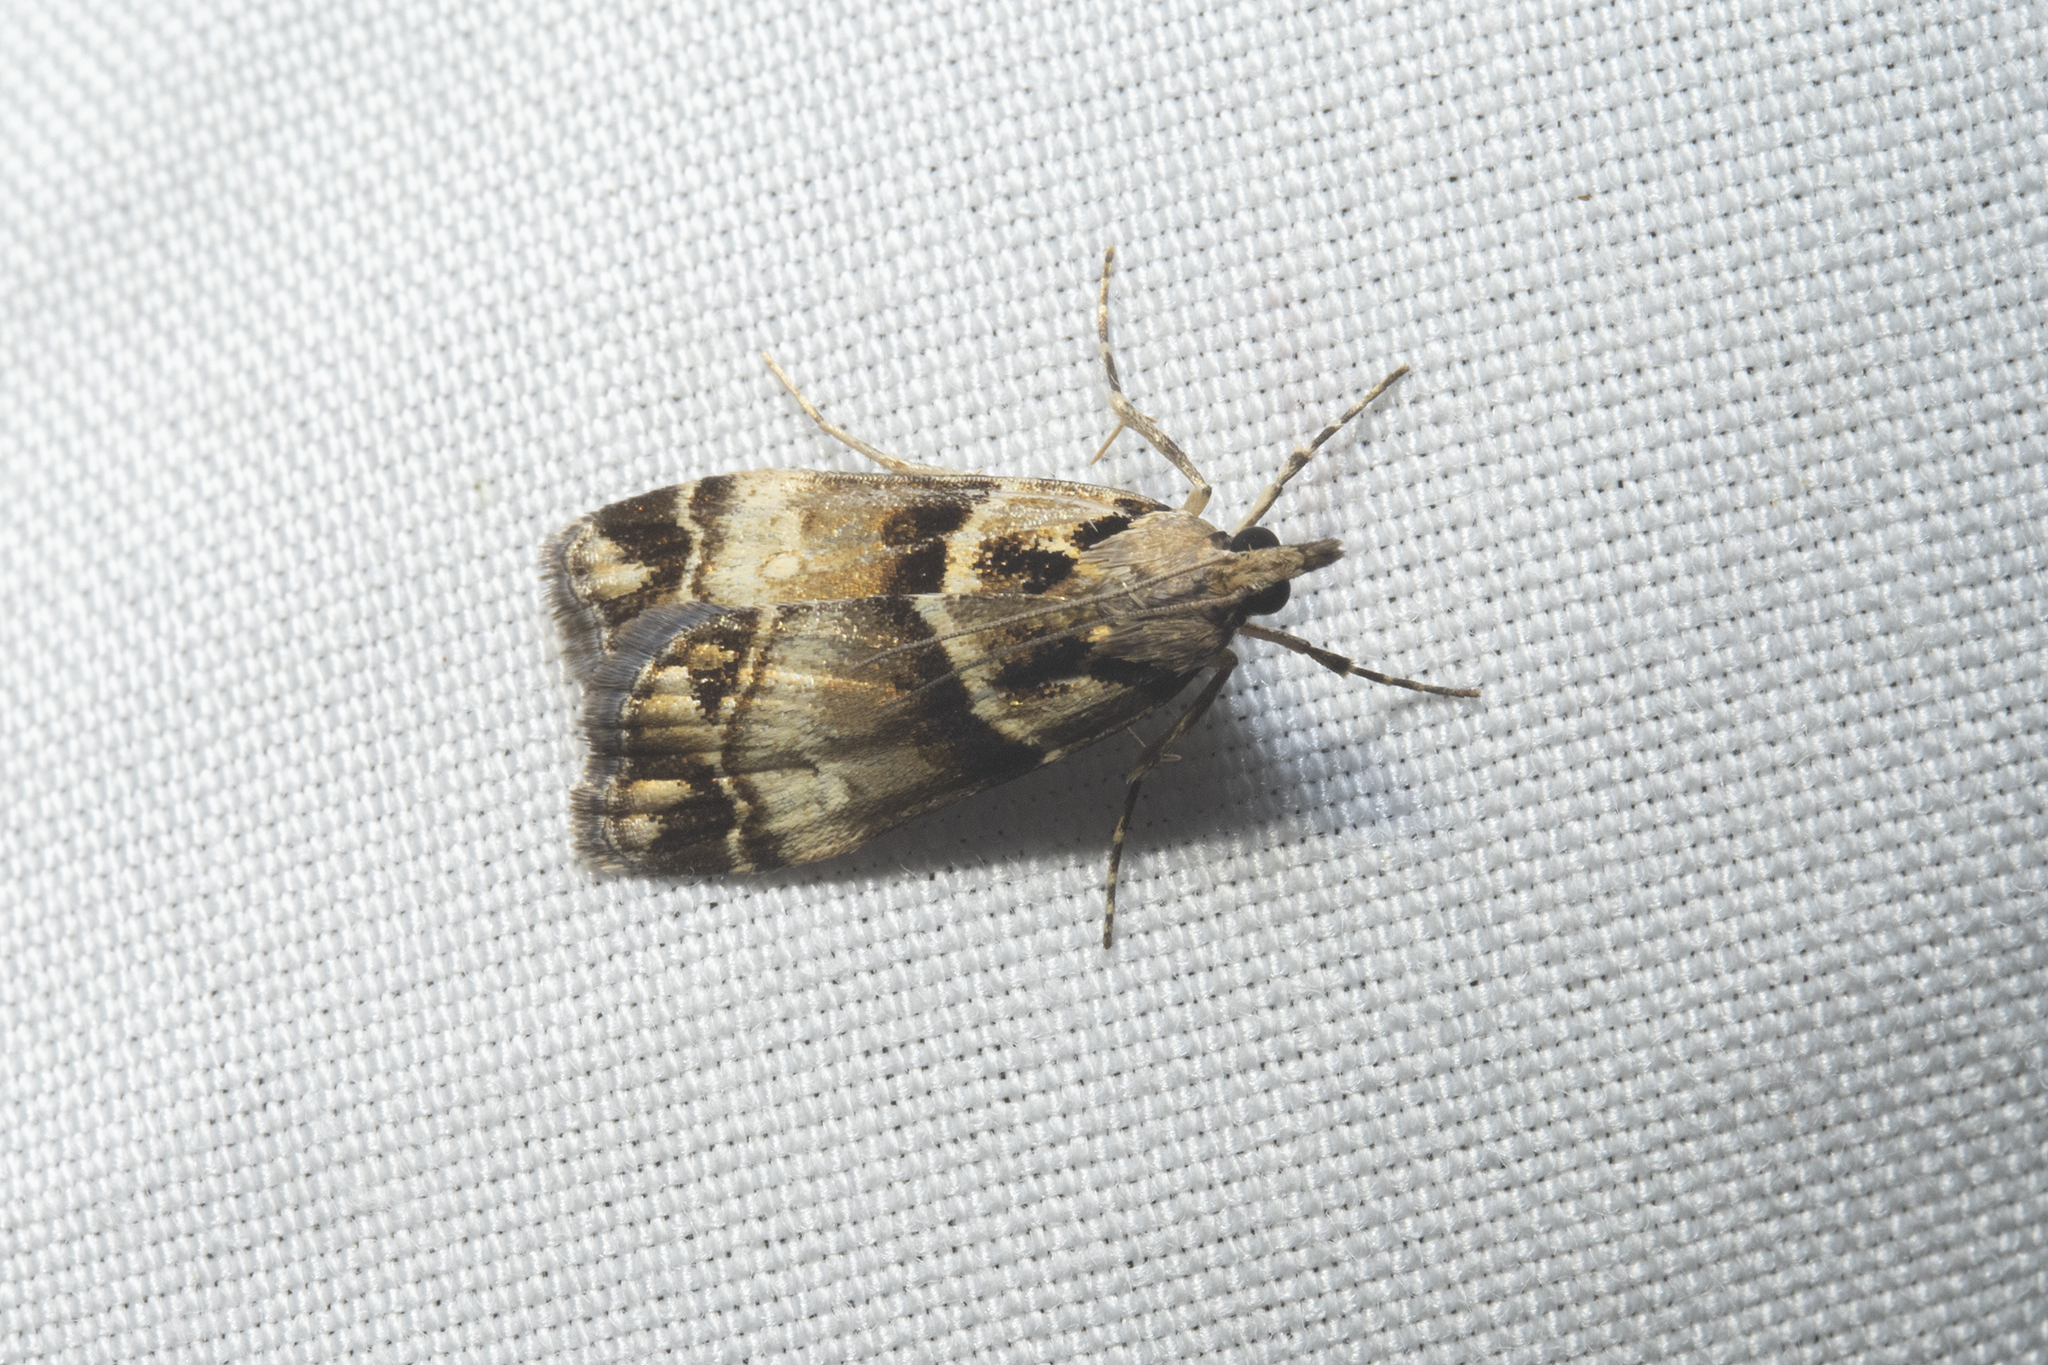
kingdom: Animalia
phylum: Arthropoda
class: Insecta
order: Lepidoptera
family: Crambidae
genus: Eudonia
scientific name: Eudonia periphanes
